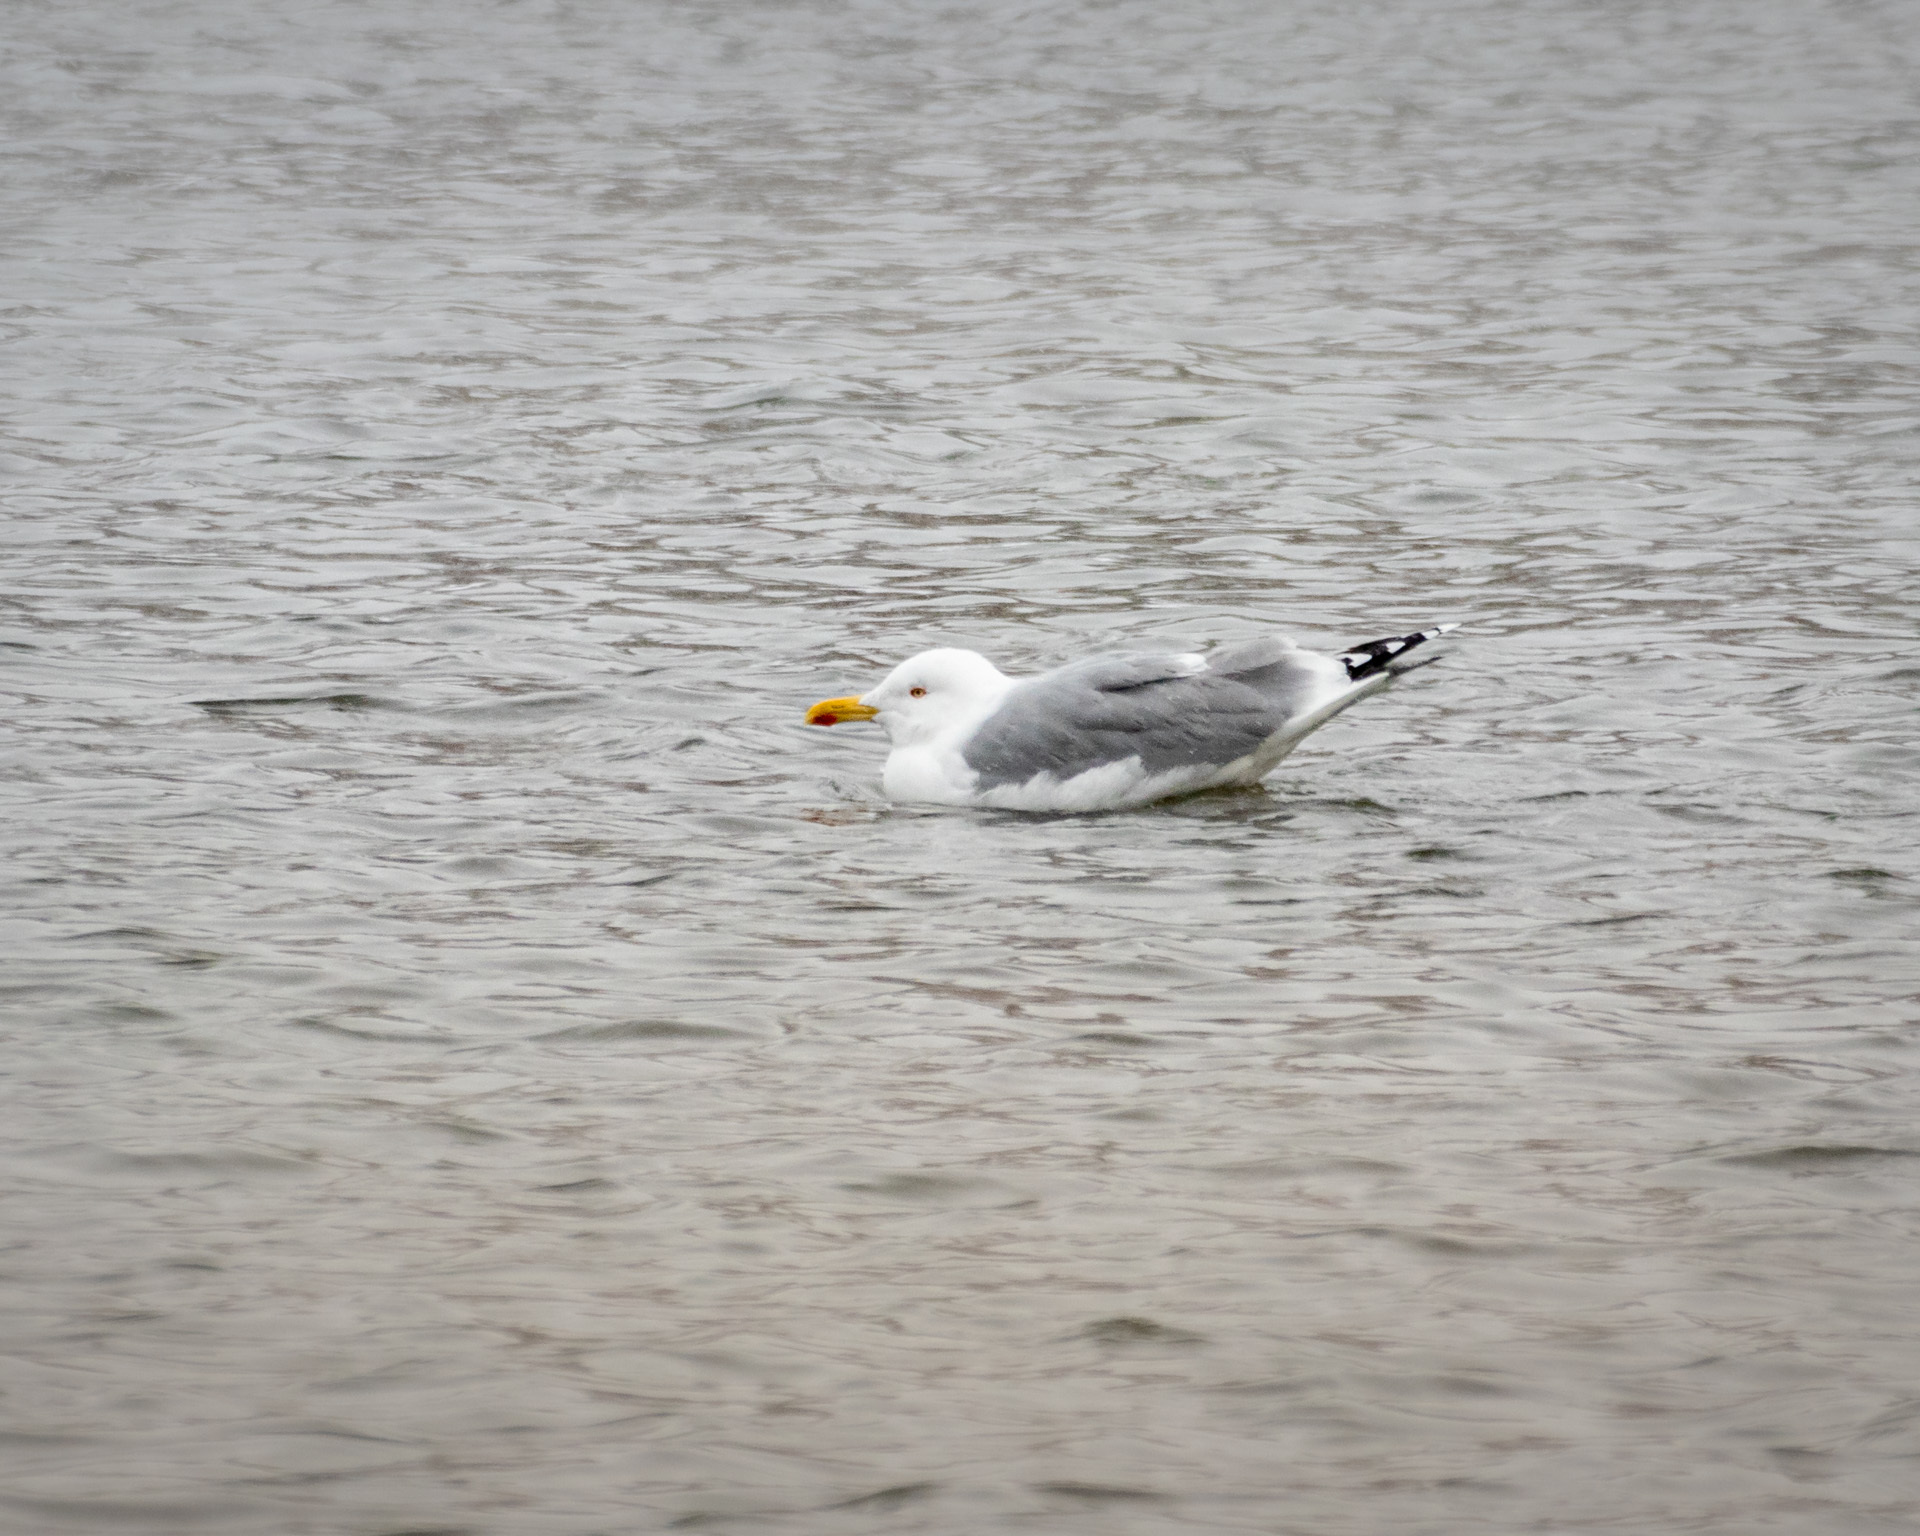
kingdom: Animalia
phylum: Chordata
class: Aves
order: Charadriiformes
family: Laridae
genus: Larus
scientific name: Larus argentatus
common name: Herring gull
